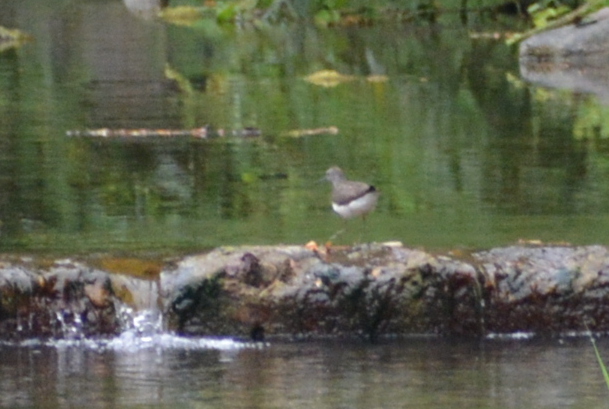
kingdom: Animalia
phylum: Chordata
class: Aves
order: Charadriiformes
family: Scolopacidae
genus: Tringa
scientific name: Tringa ochropus
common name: Green sandpiper
